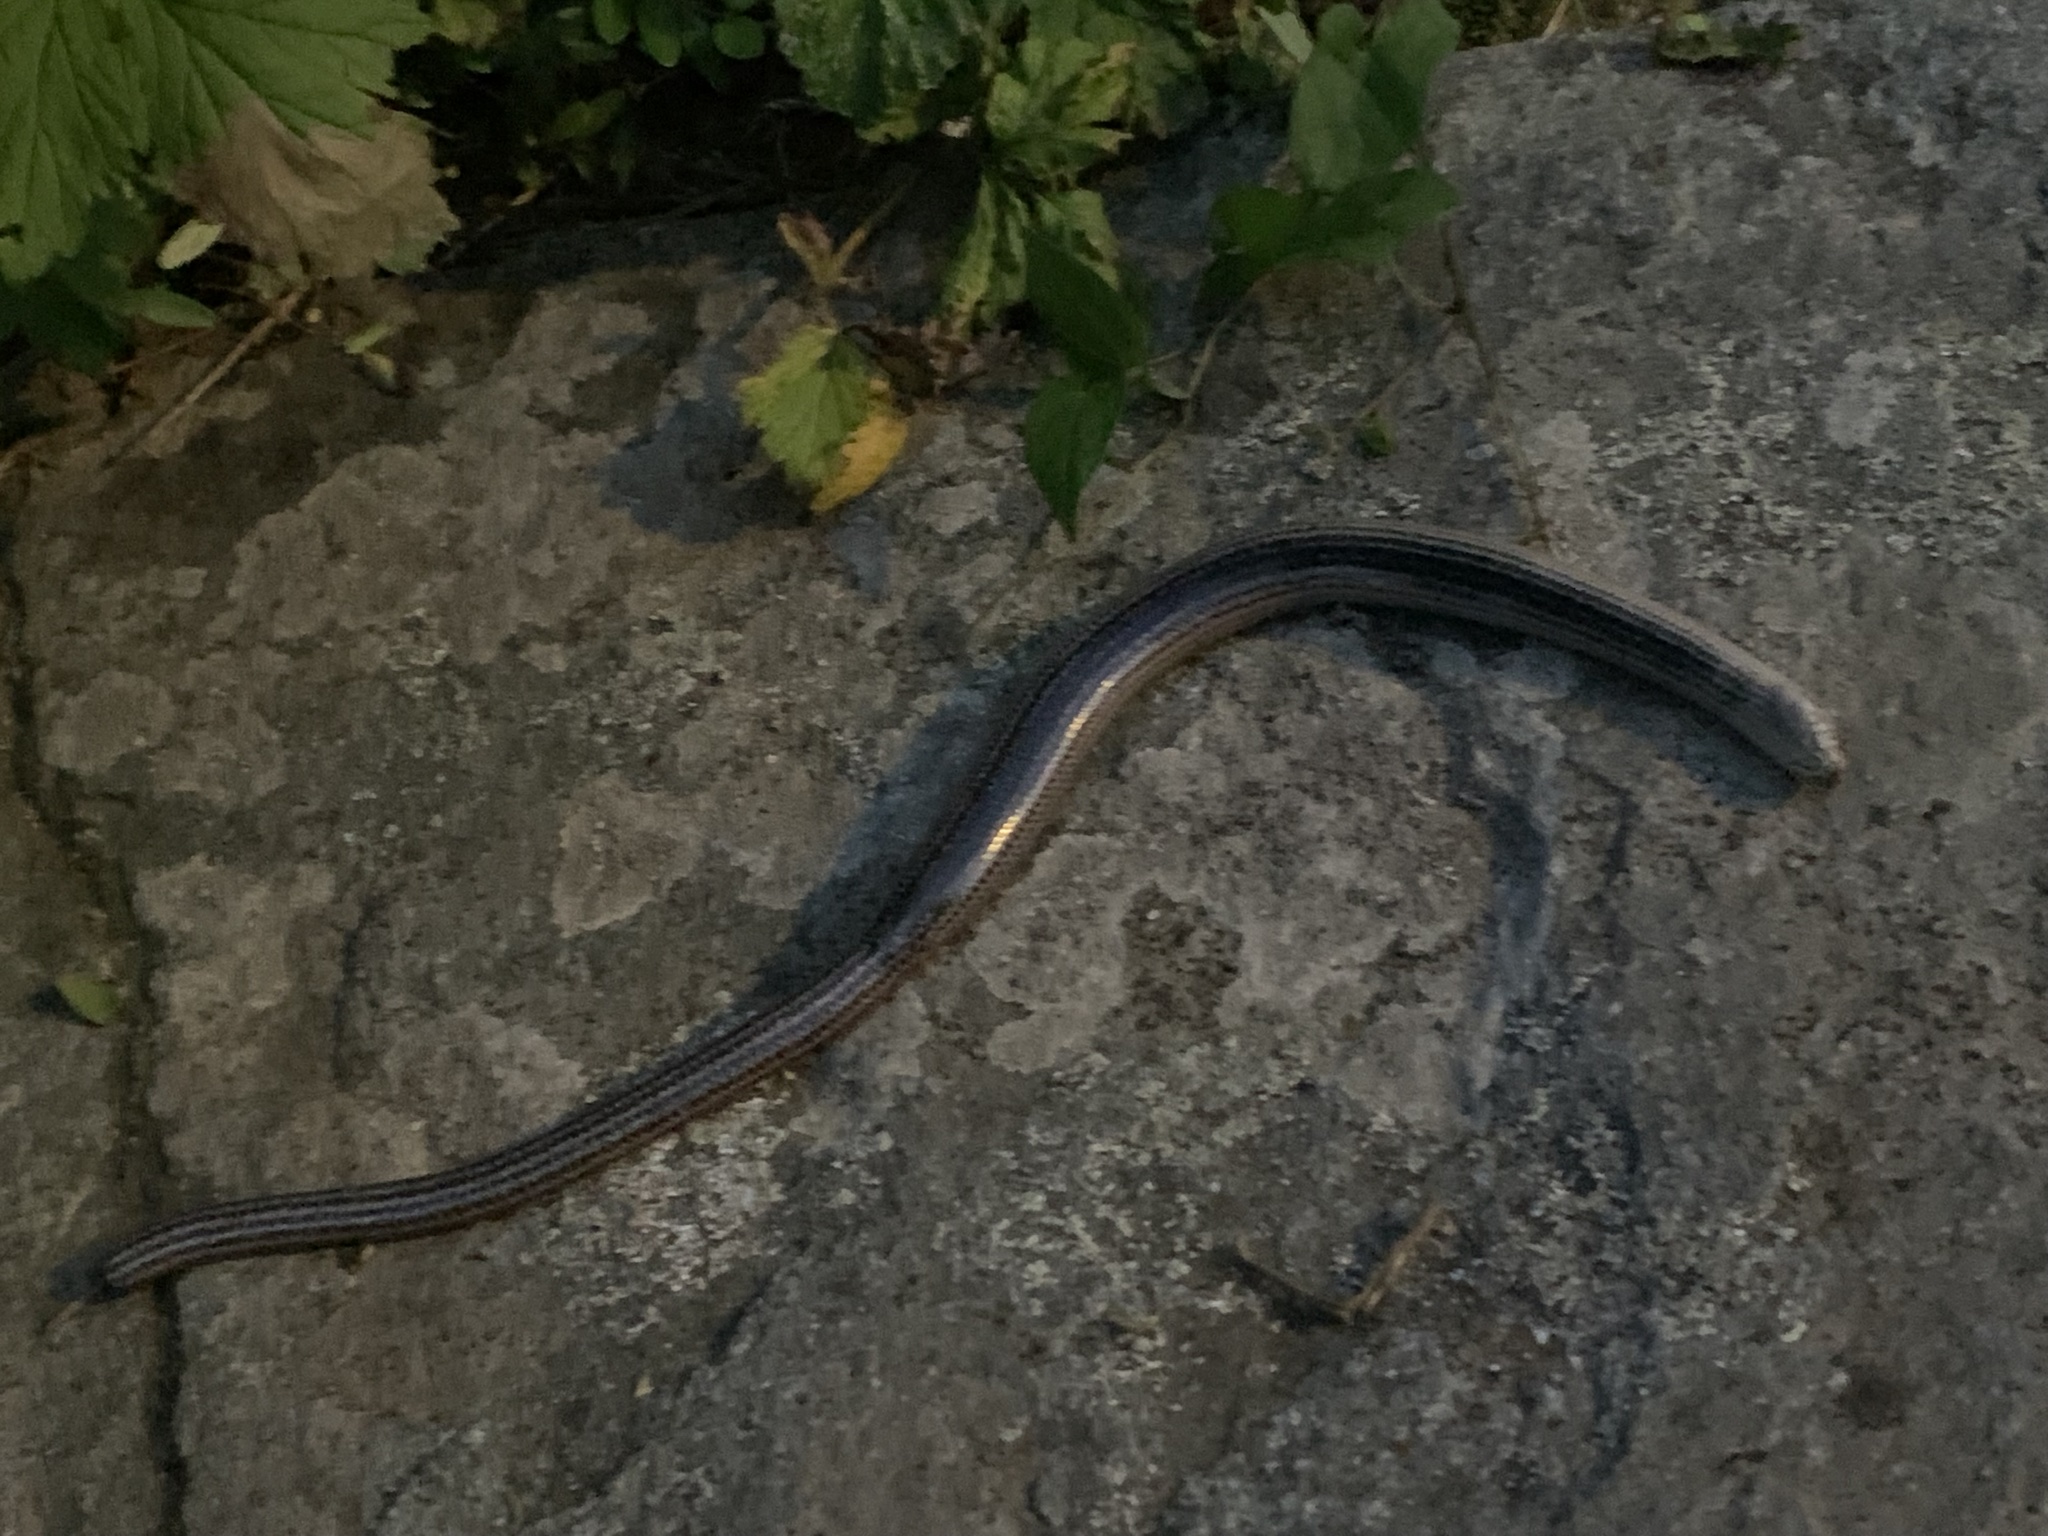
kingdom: Animalia
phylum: Chordata
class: Squamata
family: Anguidae
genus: Anguis
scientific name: Anguis fragilis
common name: Slow worm
